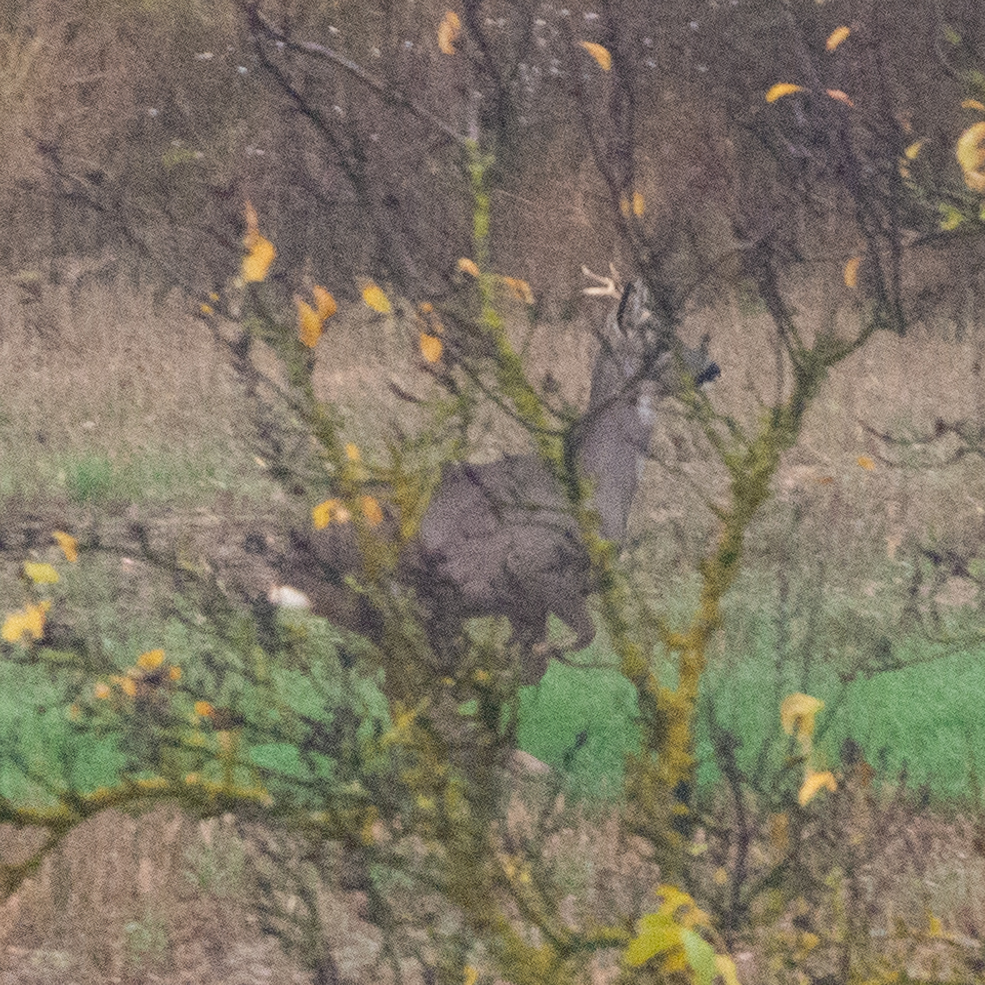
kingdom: Animalia
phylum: Chordata
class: Mammalia
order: Artiodactyla
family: Cervidae
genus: Capreolus
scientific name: Capreolus capreolus
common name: Western roe deer
